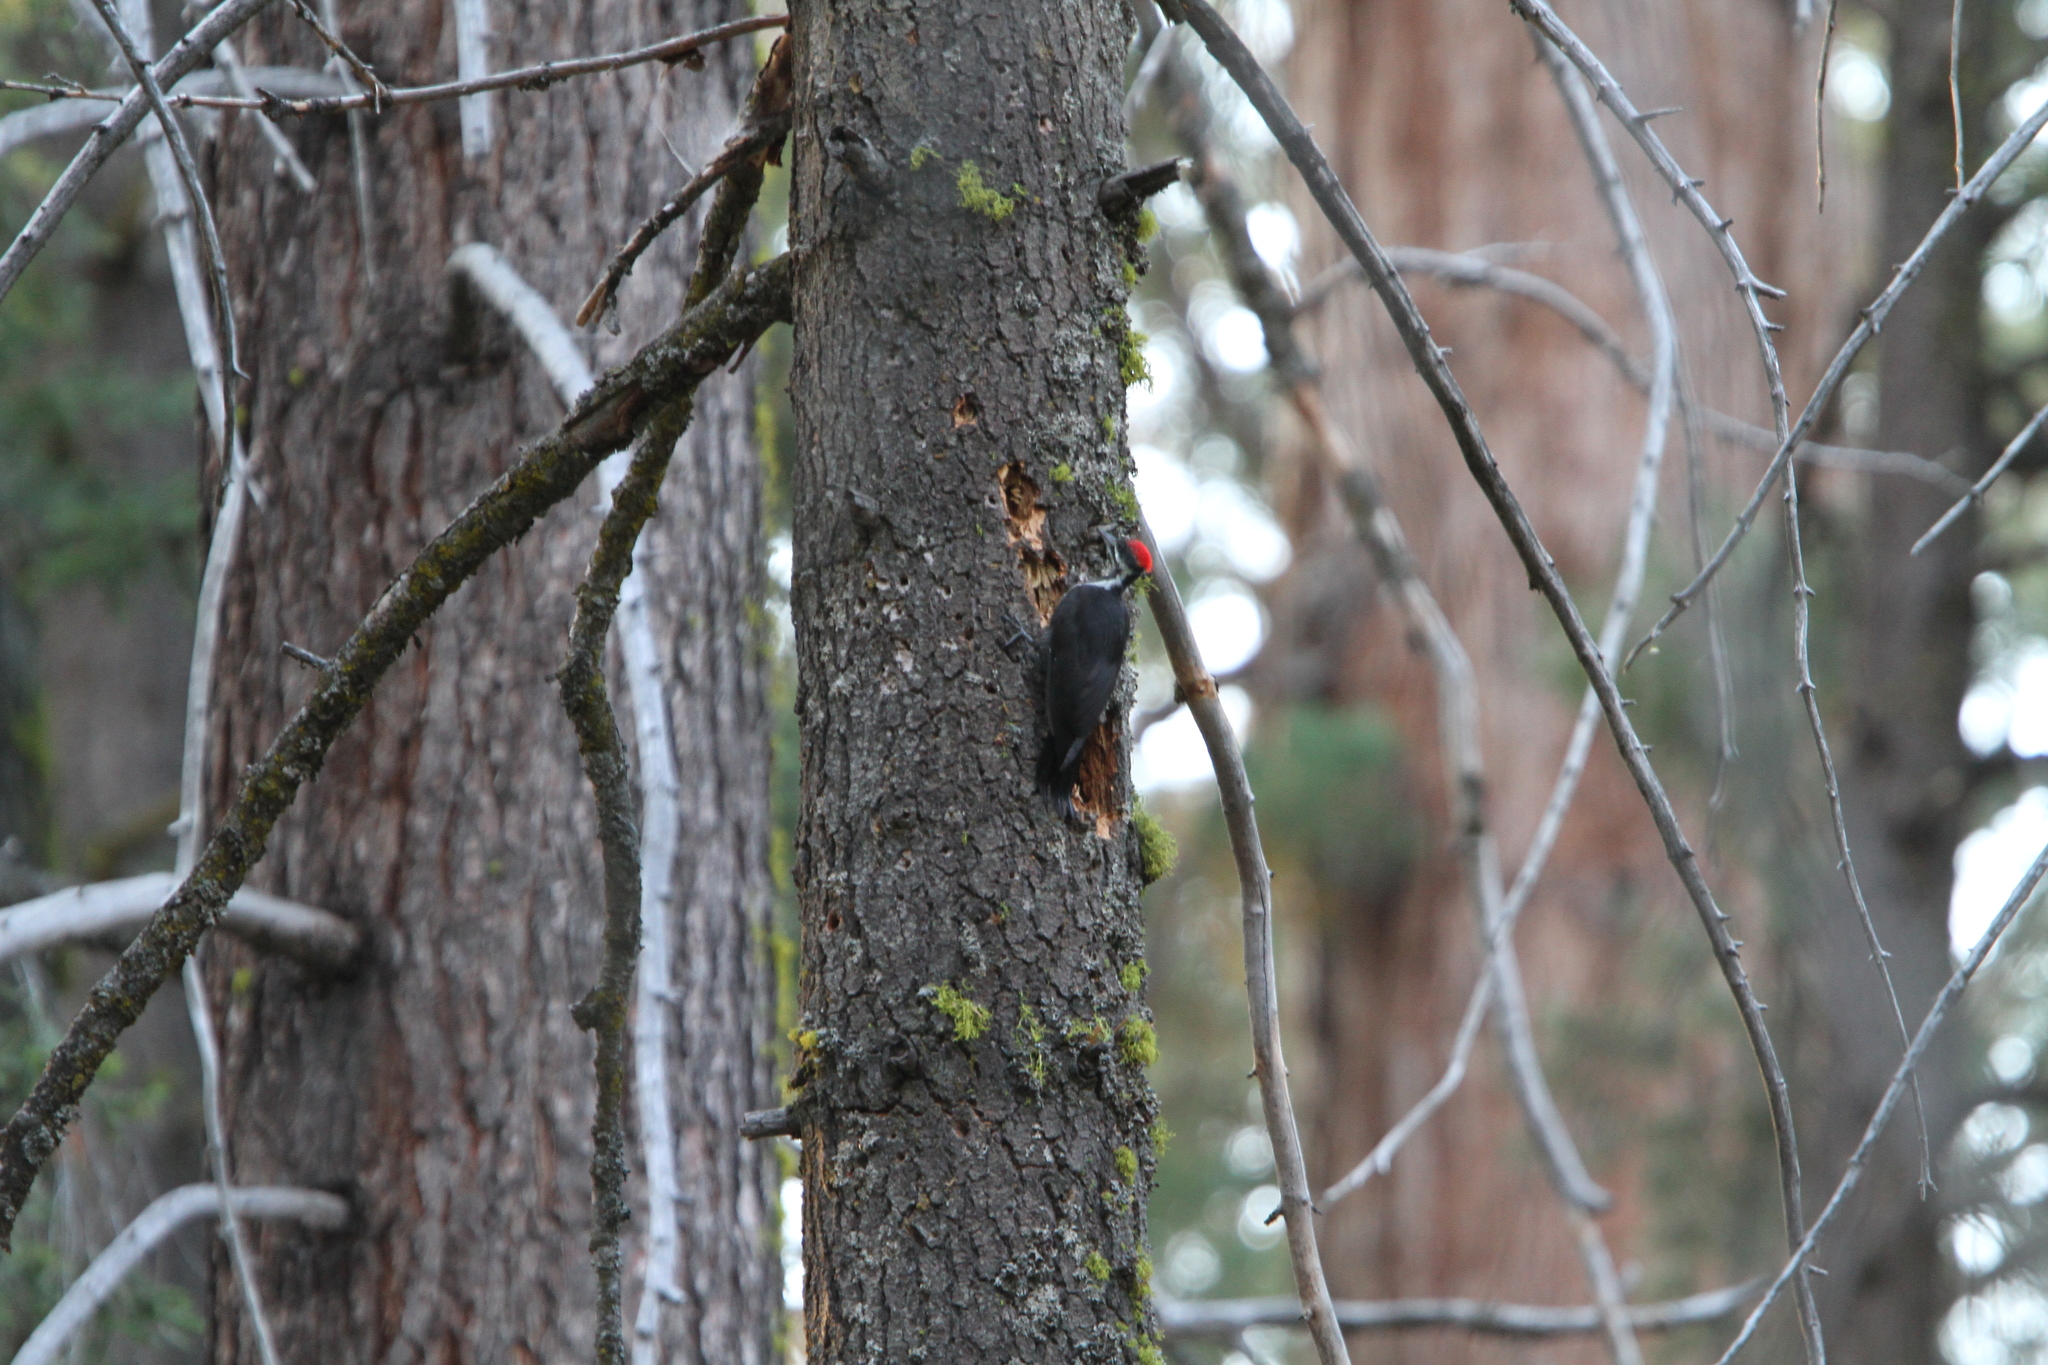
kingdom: Animalia
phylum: Chordata
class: Aves
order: Piciformes
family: Picidae
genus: Dryocopus
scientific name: Dryocopus pileatus
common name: Pileated woodpecker
